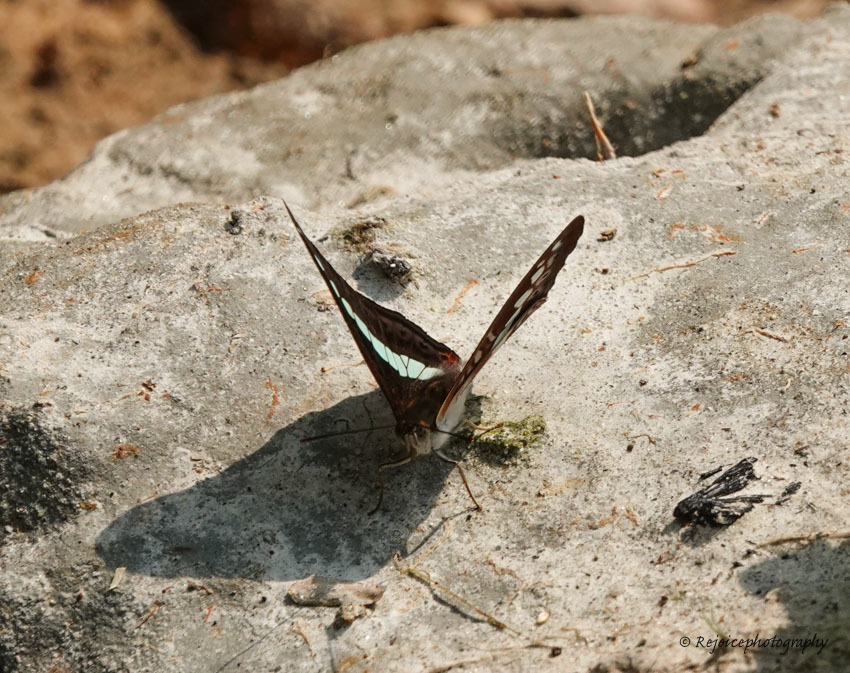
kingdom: Animalia
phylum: Arthropoda
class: Insecta
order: Lepidoptera
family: Nymphalidae
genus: Limenitis
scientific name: Limenitis Sumalia daraxa
